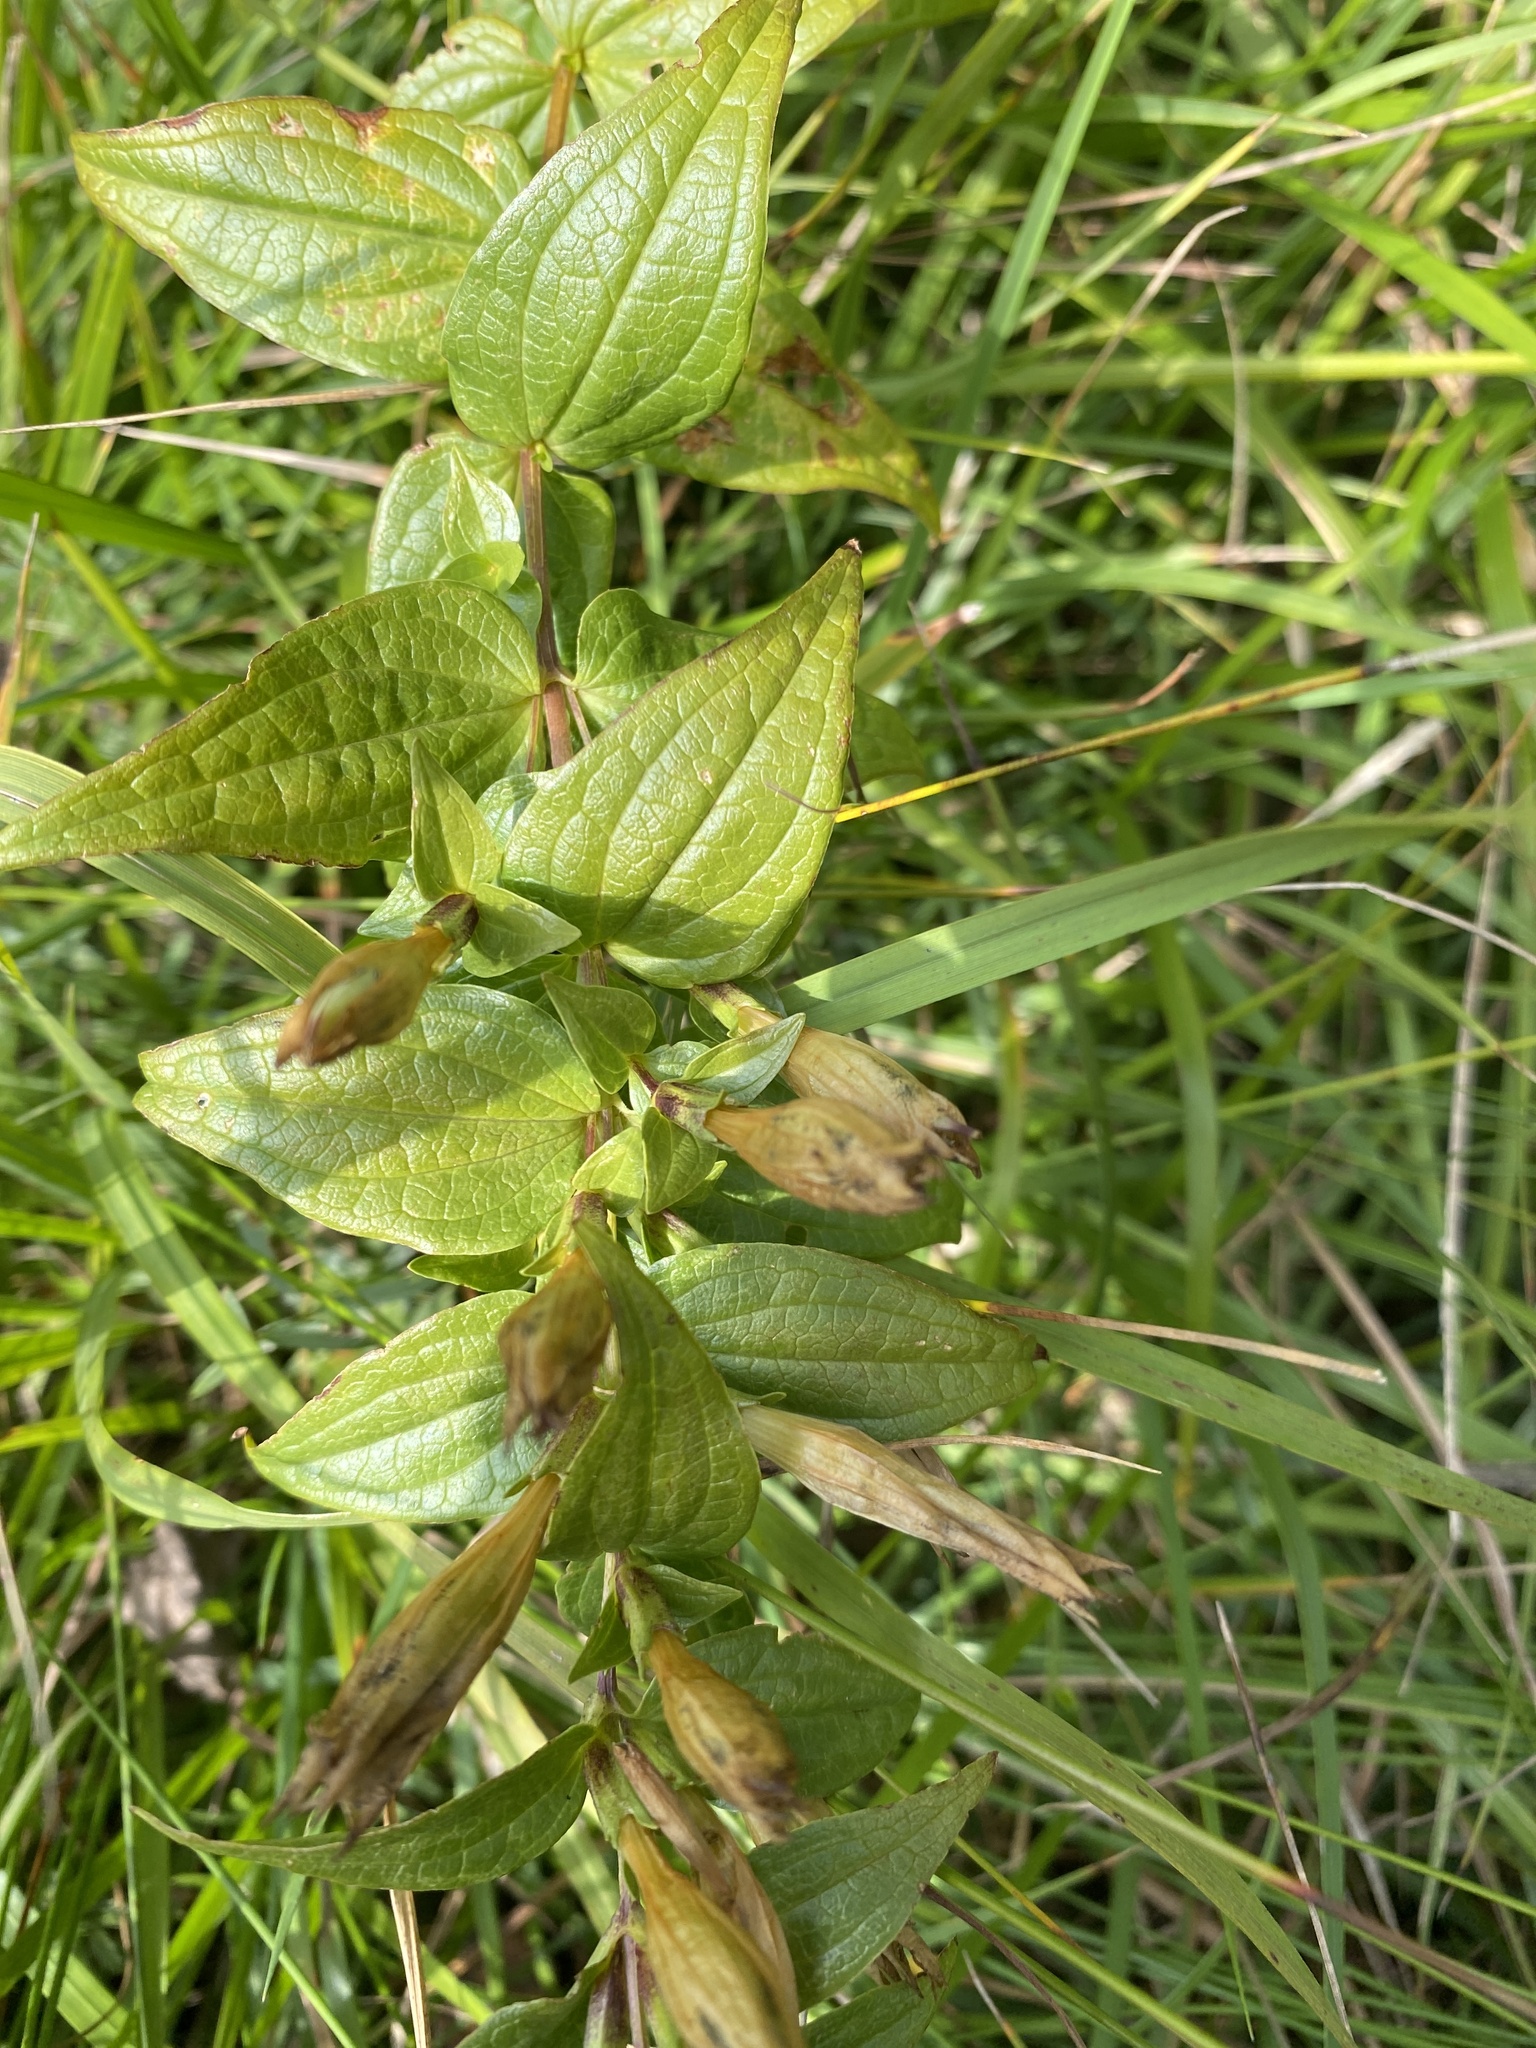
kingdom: Plantae
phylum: Tracheophyta
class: Magnoliopsida
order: Gentianales
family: Gentianaceae
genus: Gentiana
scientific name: Gentiana asclepiadea
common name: Willow gentian
